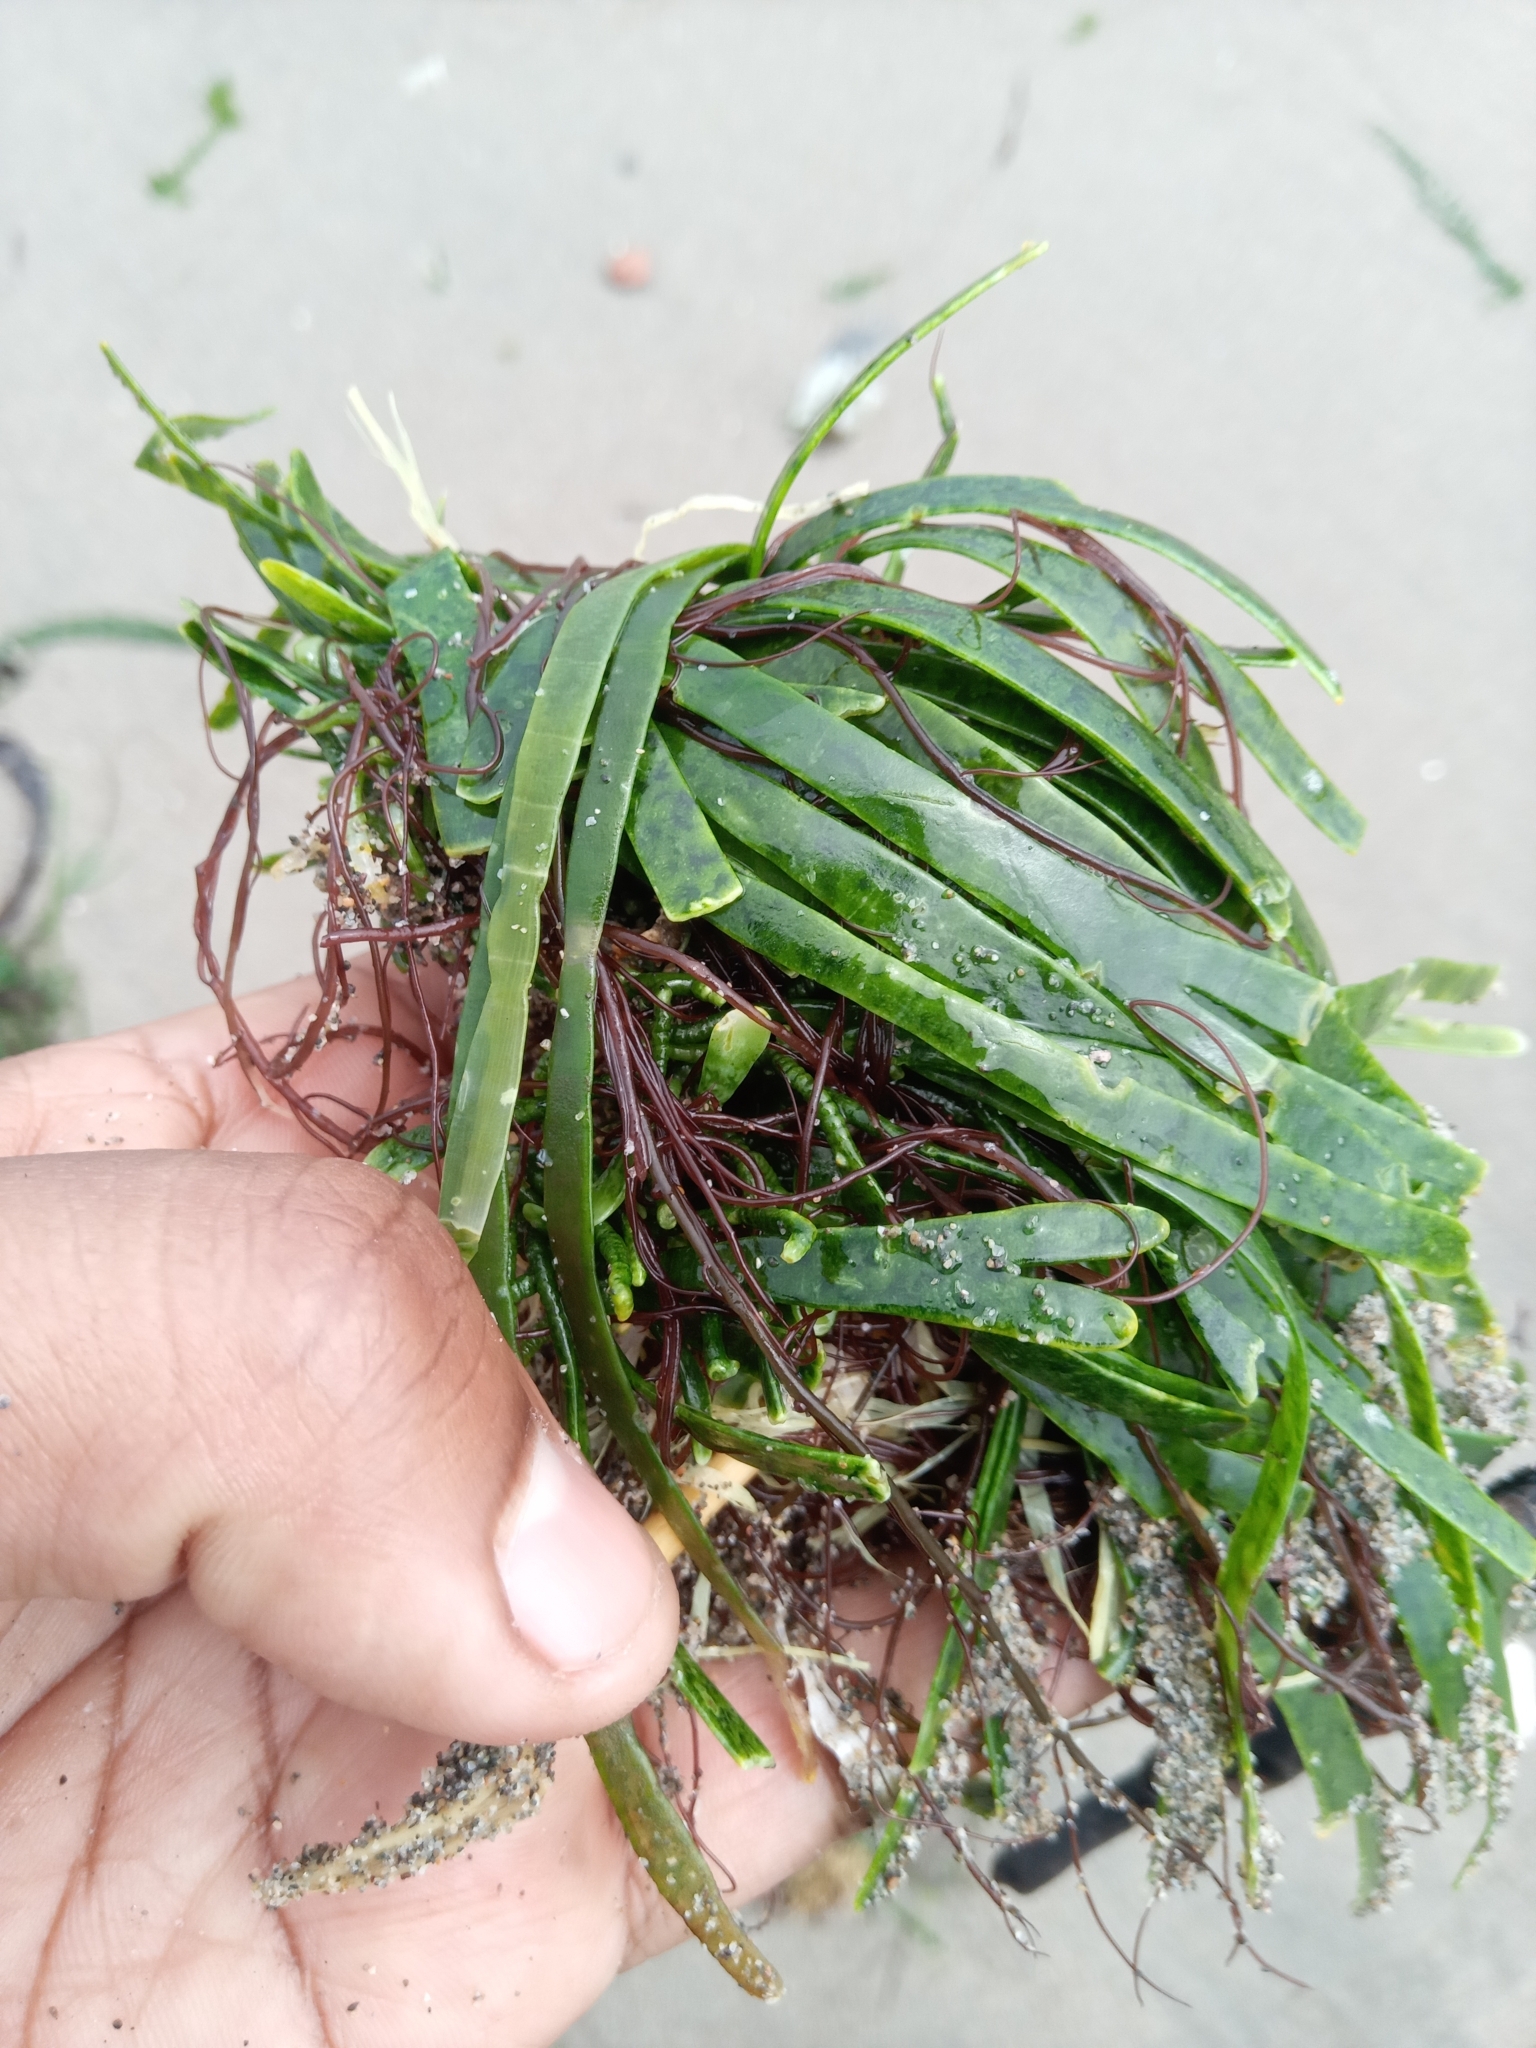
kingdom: Plantae
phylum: Chlorophyta
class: Ulvophyceae
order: Bryopsidales
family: Caulerpaceae
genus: Caulerpa
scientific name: Caulerpa filiformis
